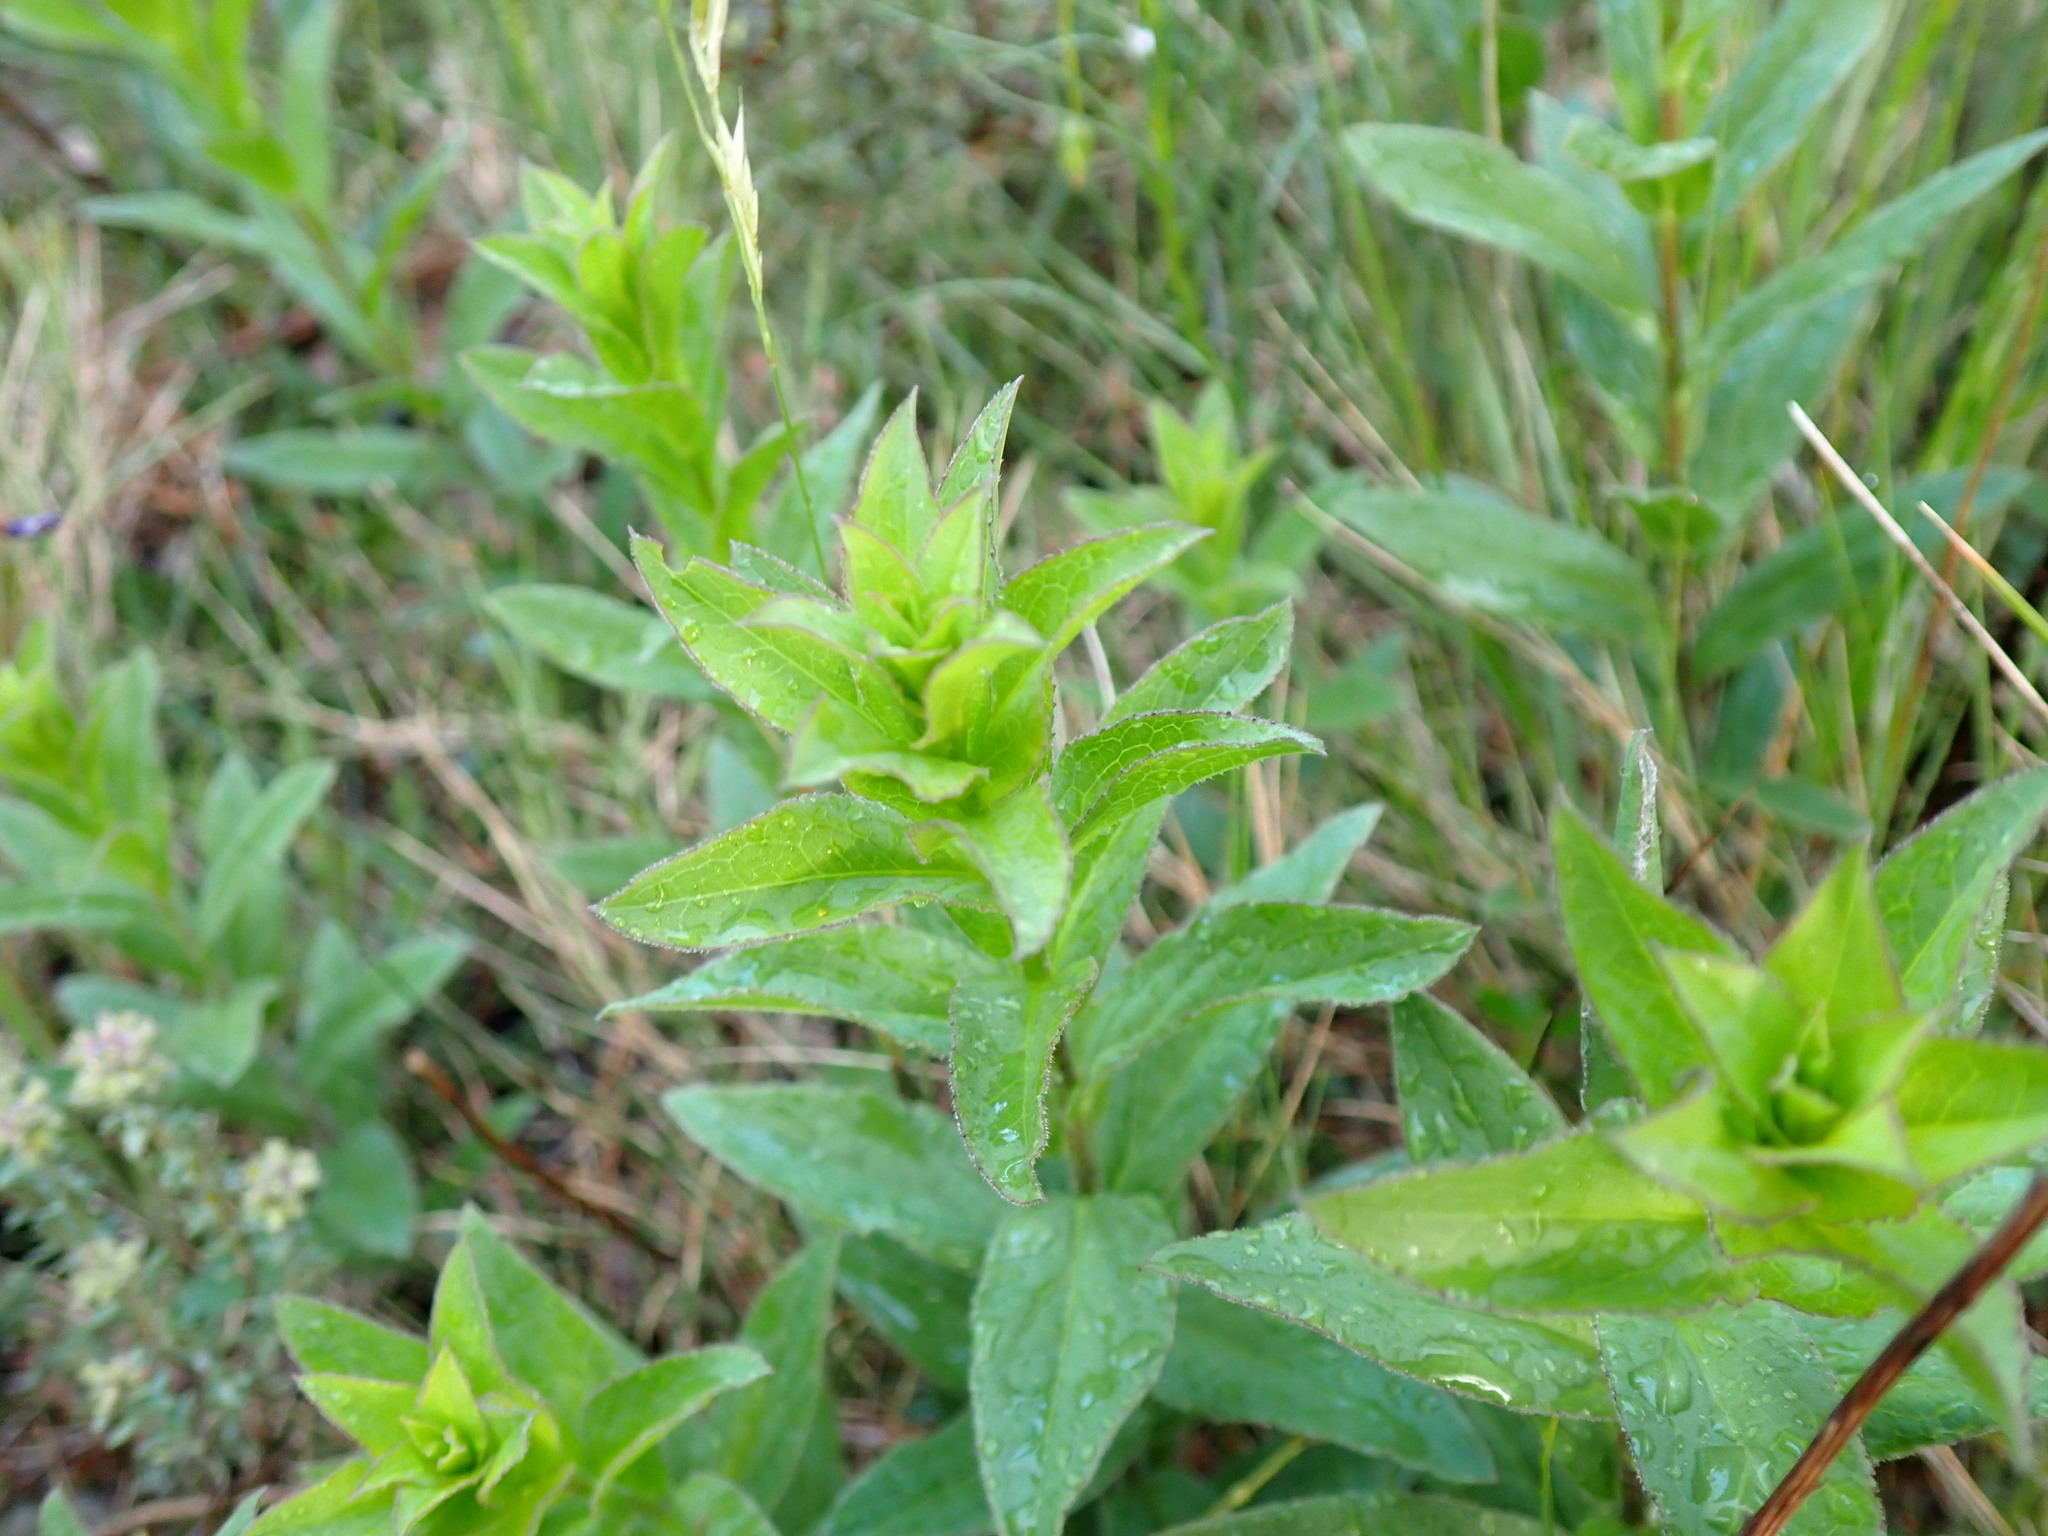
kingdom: Plantae
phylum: Tracheophyta
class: Magnoliopsida
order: Asterales
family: Asteraceae
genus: Pentanema
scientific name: Pentanema spiraeifolium
